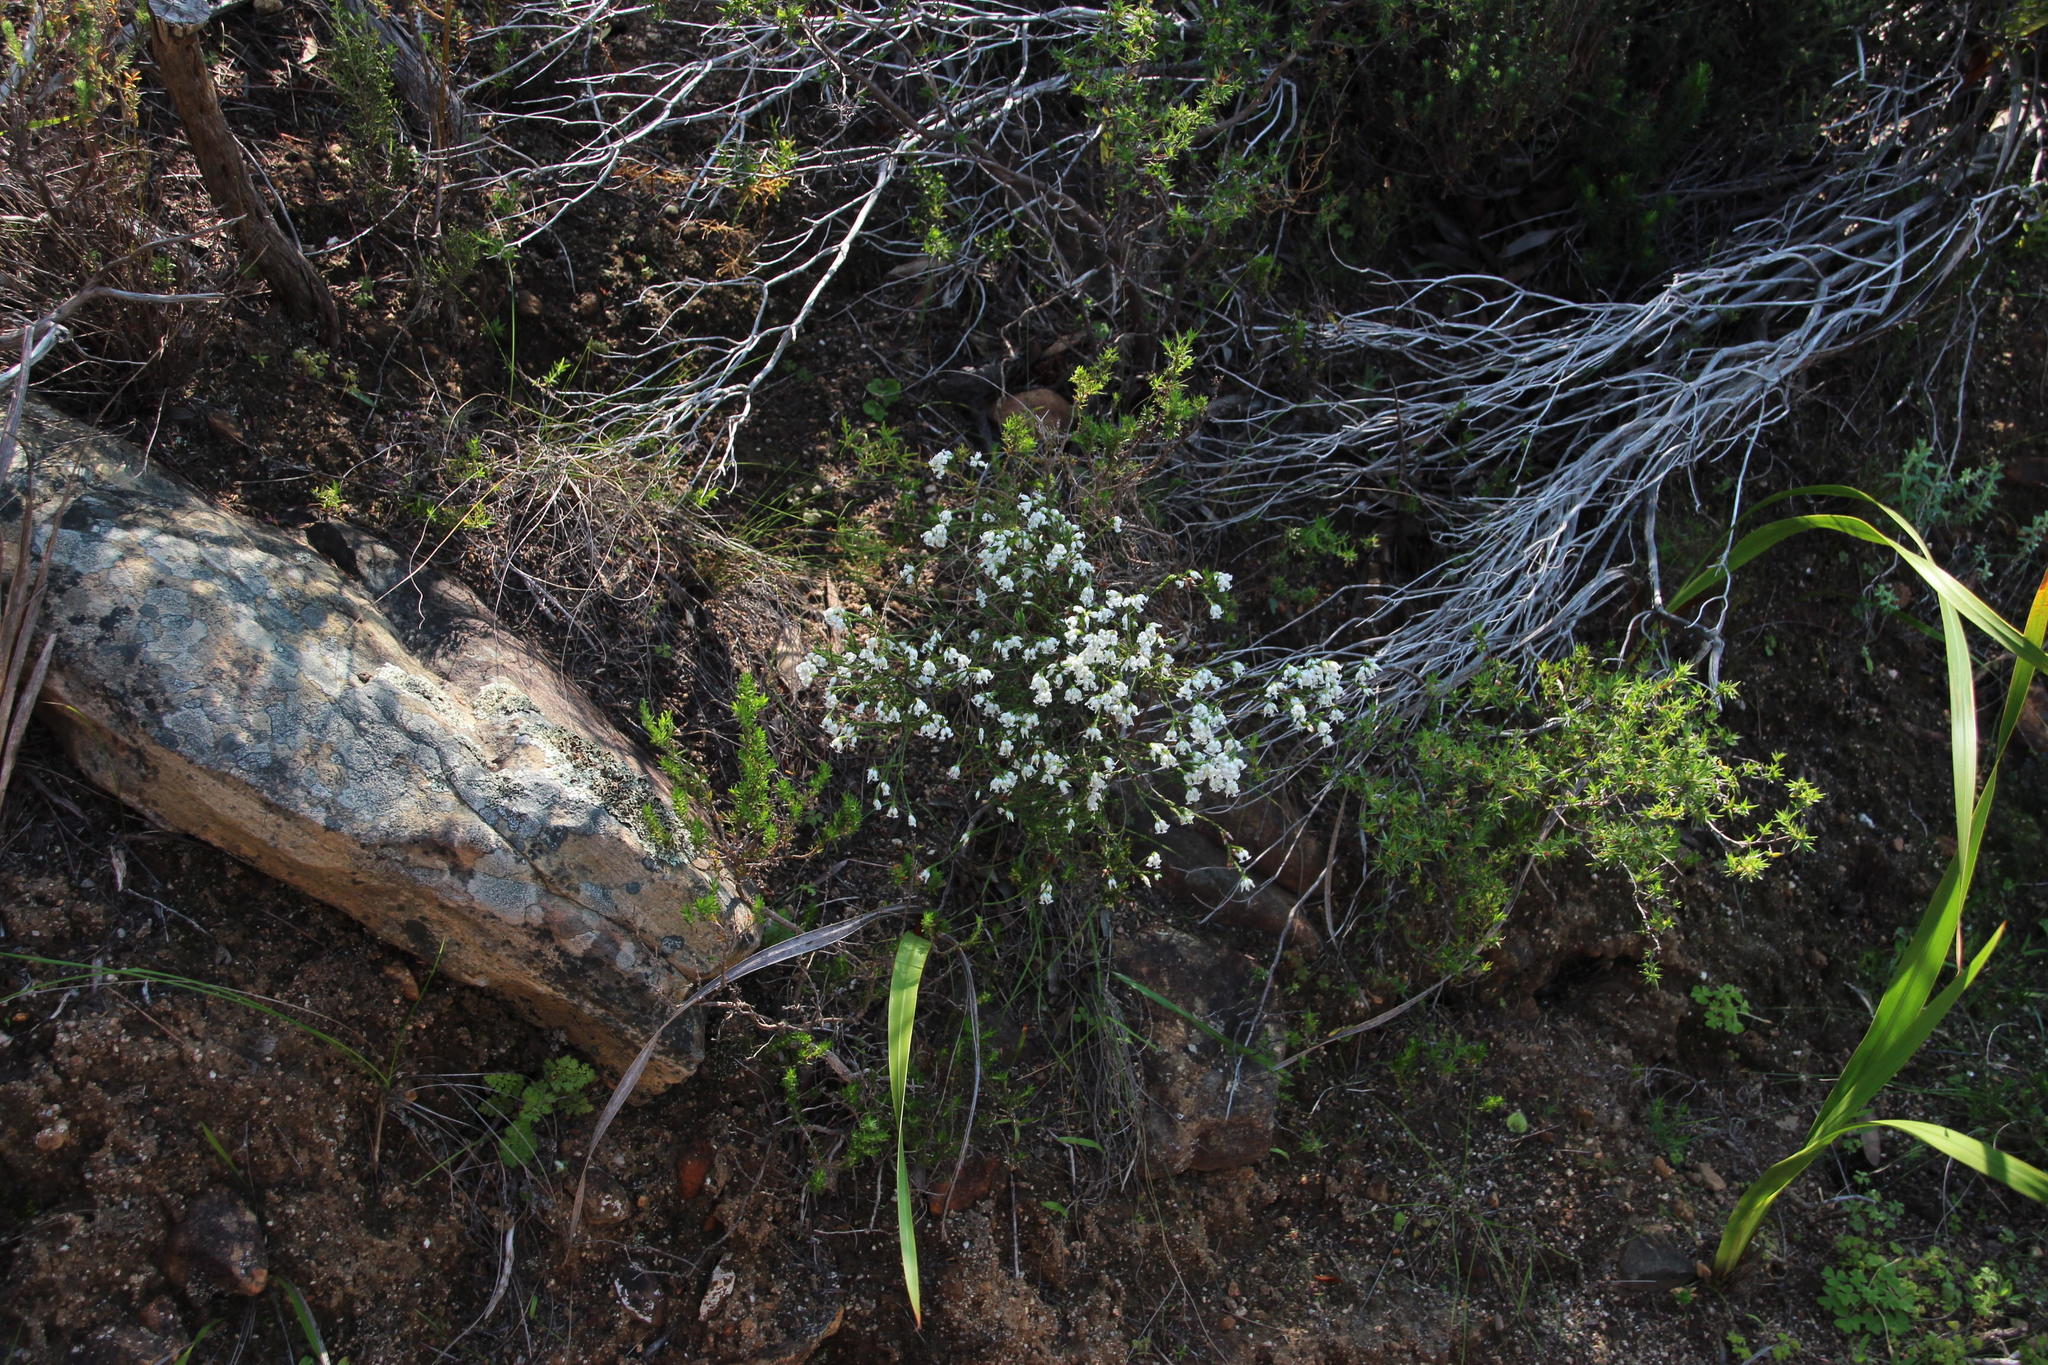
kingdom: Plantae
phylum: Tracheophyta
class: Magnoliopsida
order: Ericales
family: Ericaceae
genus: Erica
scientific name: Erica lutea
